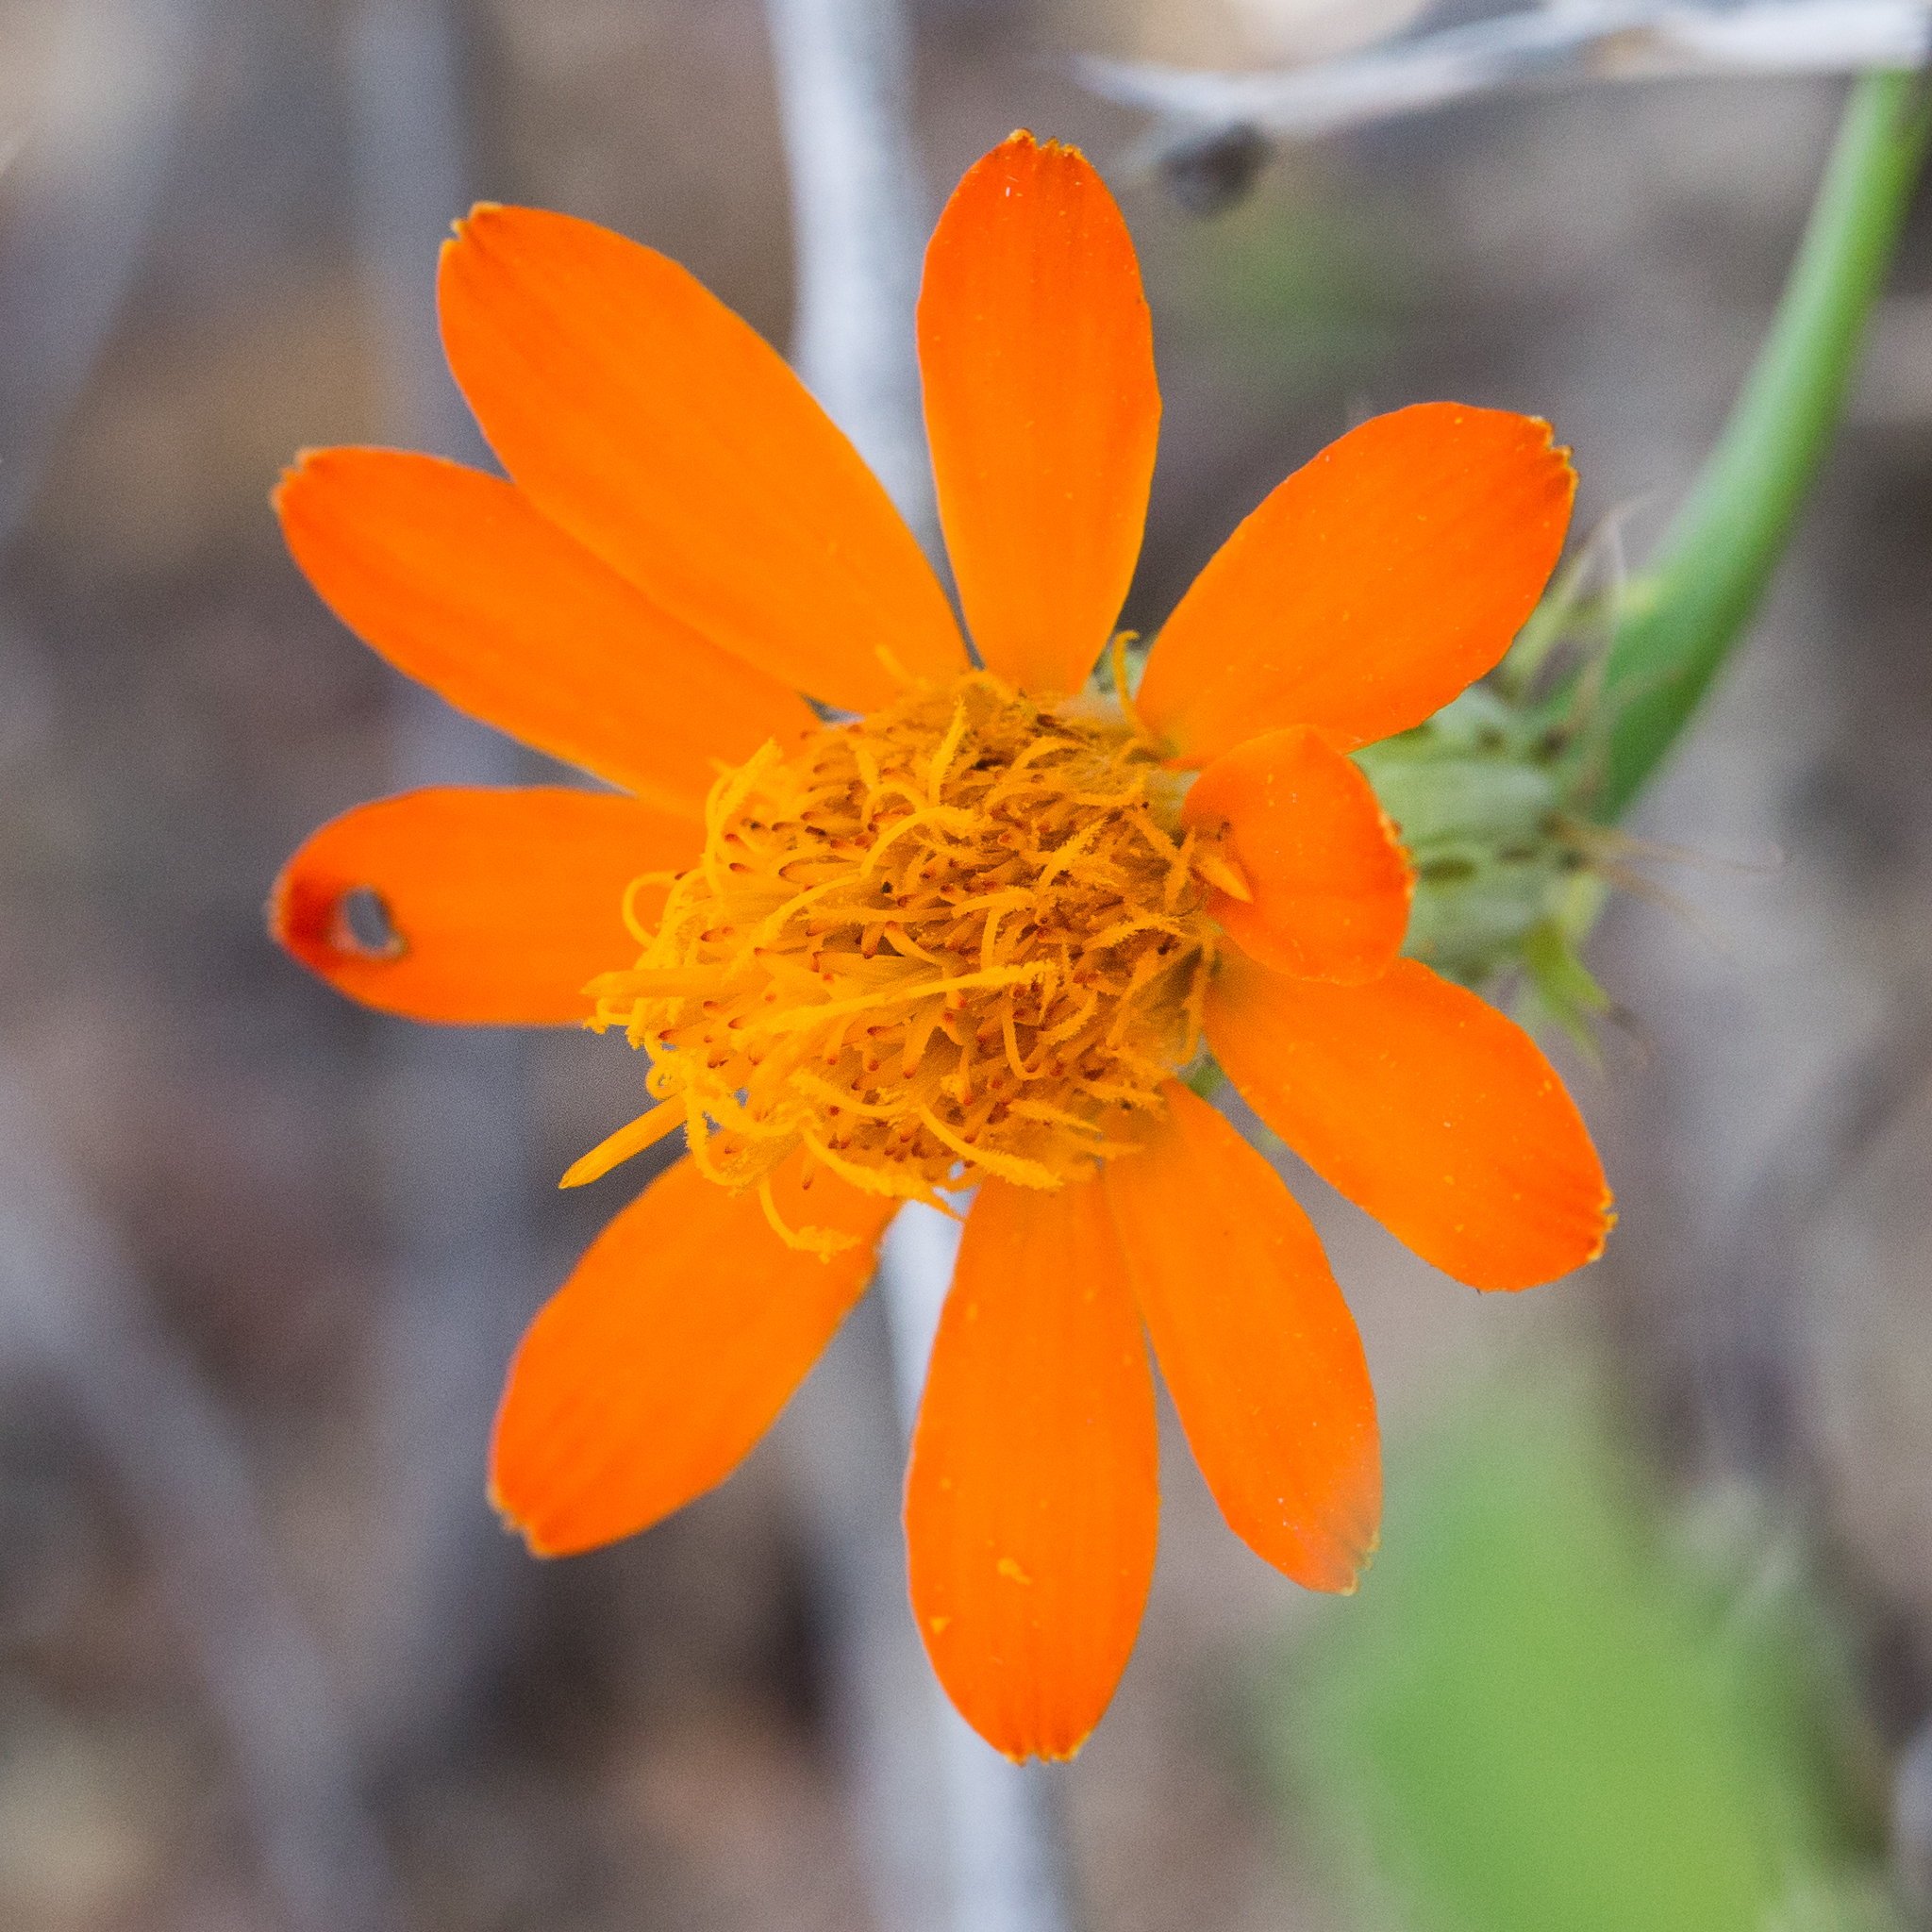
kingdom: Plantae
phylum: Tracheophyta
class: Magnoliopsida
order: Asterales
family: Asteraceae
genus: Adenophyllum
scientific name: Adenophyllum speciosum
